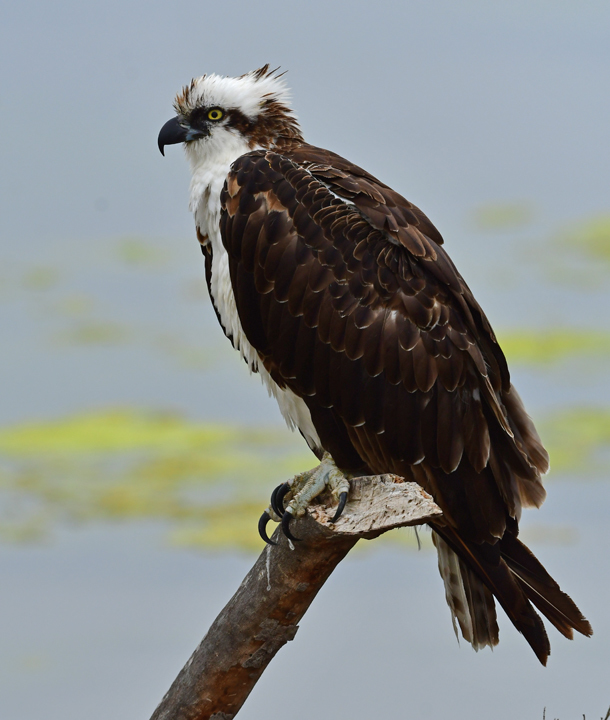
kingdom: Animalia
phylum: Chordata
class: Aves
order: Accipitriformes
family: Pandionidae
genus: Pandion
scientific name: Pandion haliaetus
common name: Osprey
